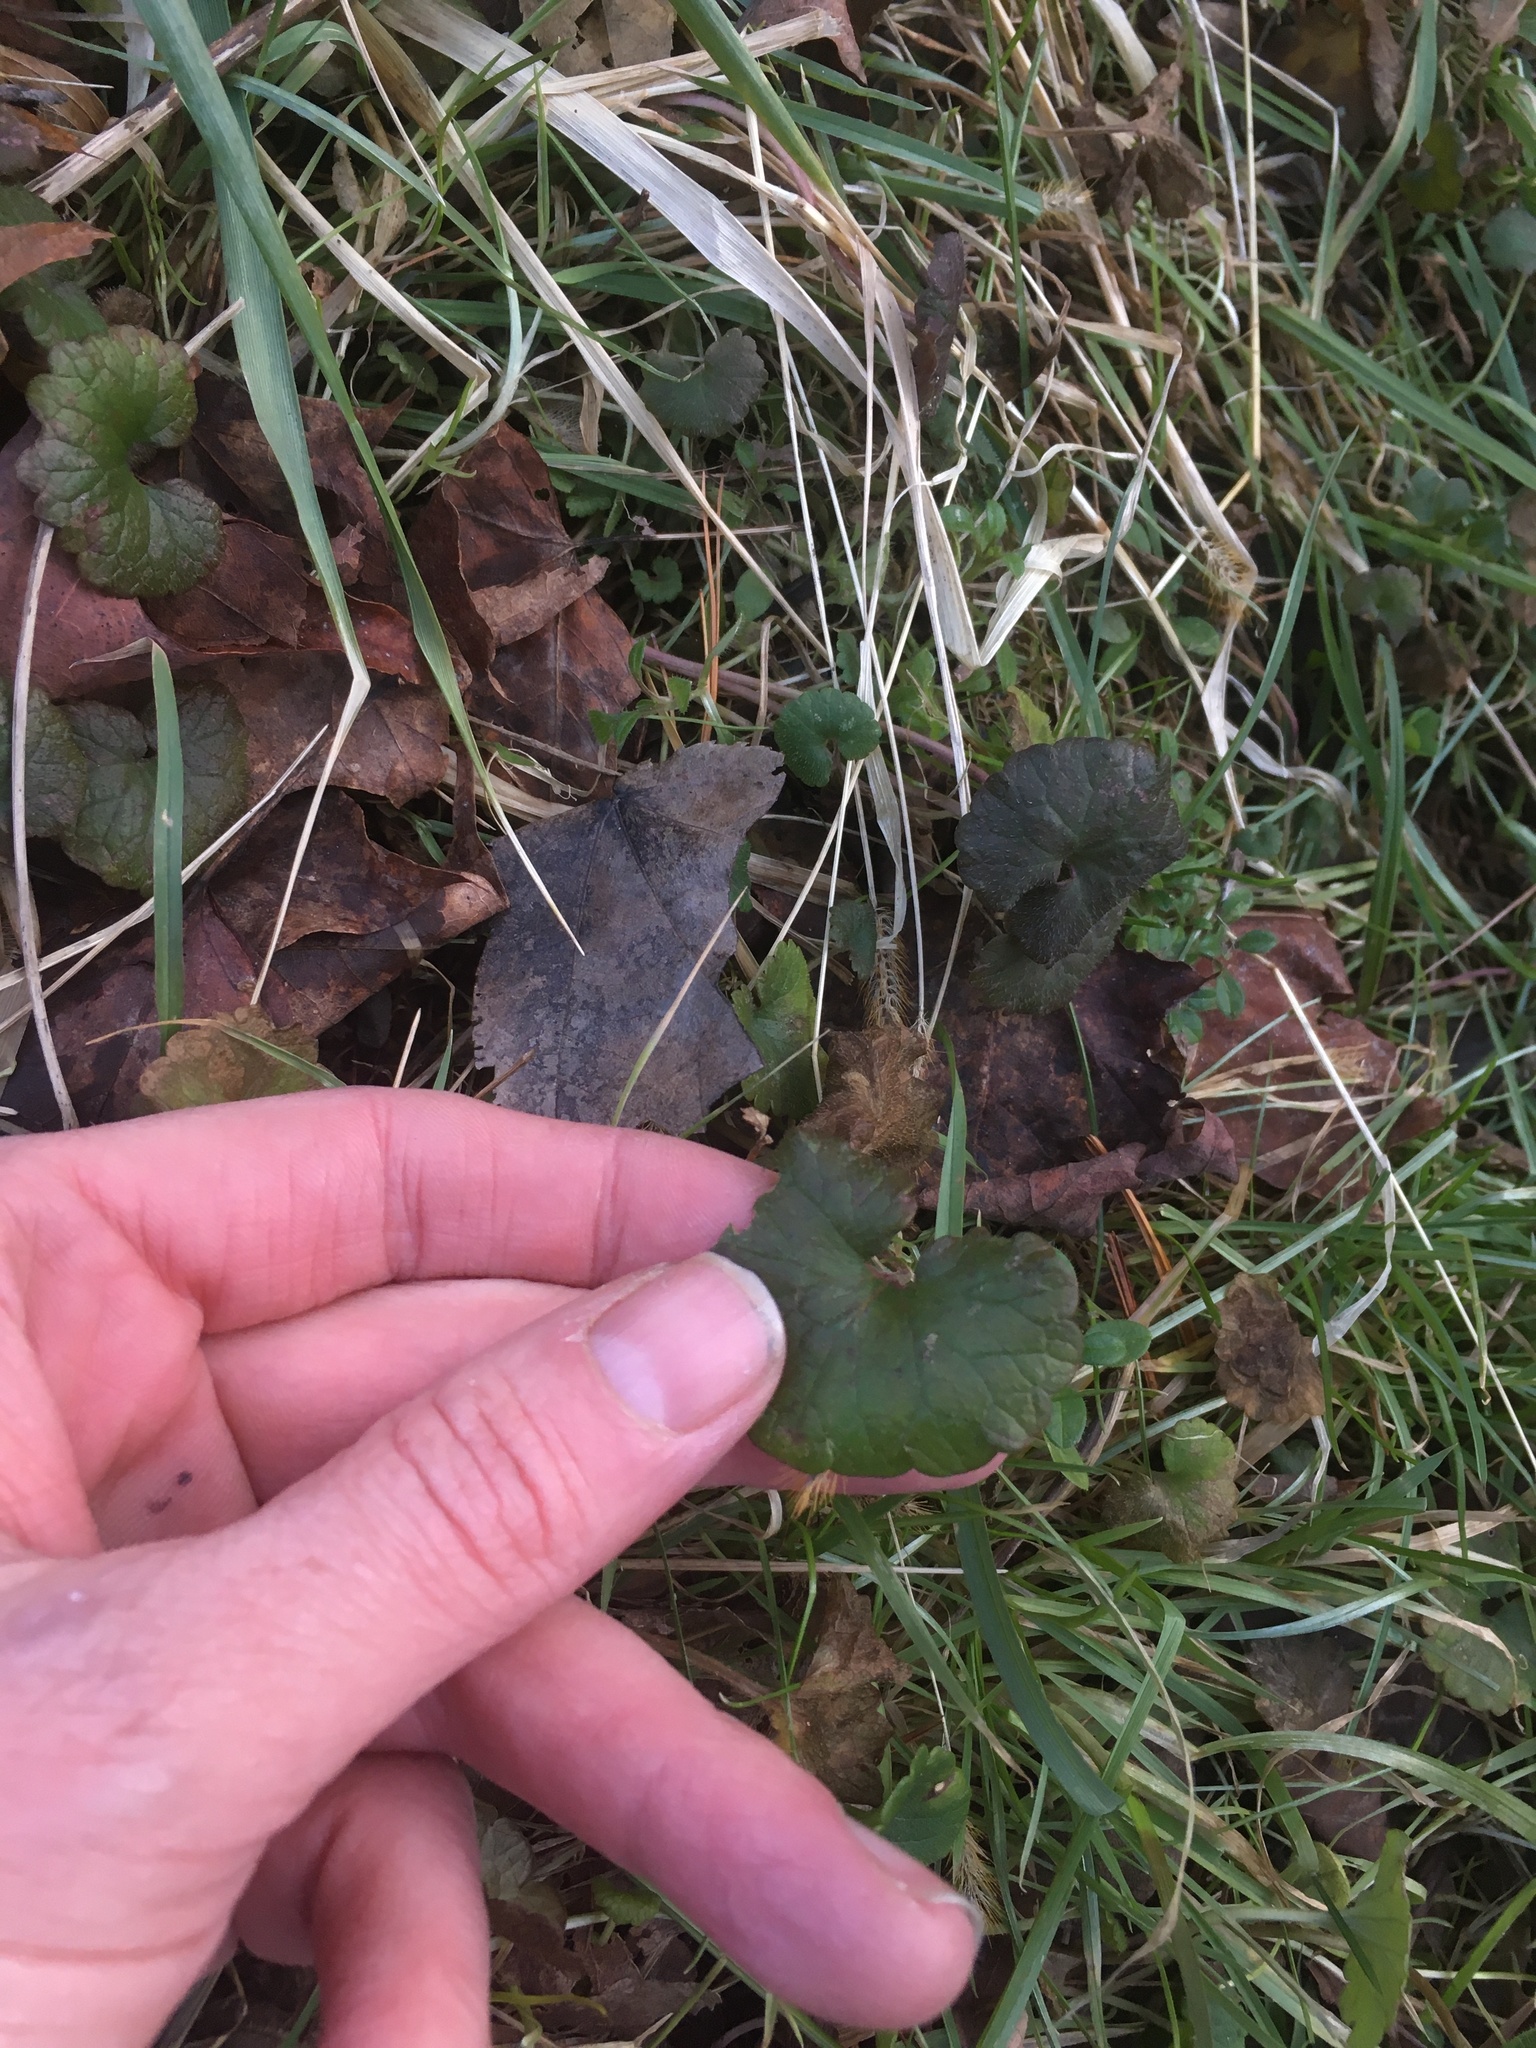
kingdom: Plantae
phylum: Tracheophyta
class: Magnoliopsida
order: Lamiales
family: Lamiaceae
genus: Glechoma
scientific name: Glechoma hederacea
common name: Ground ivy
